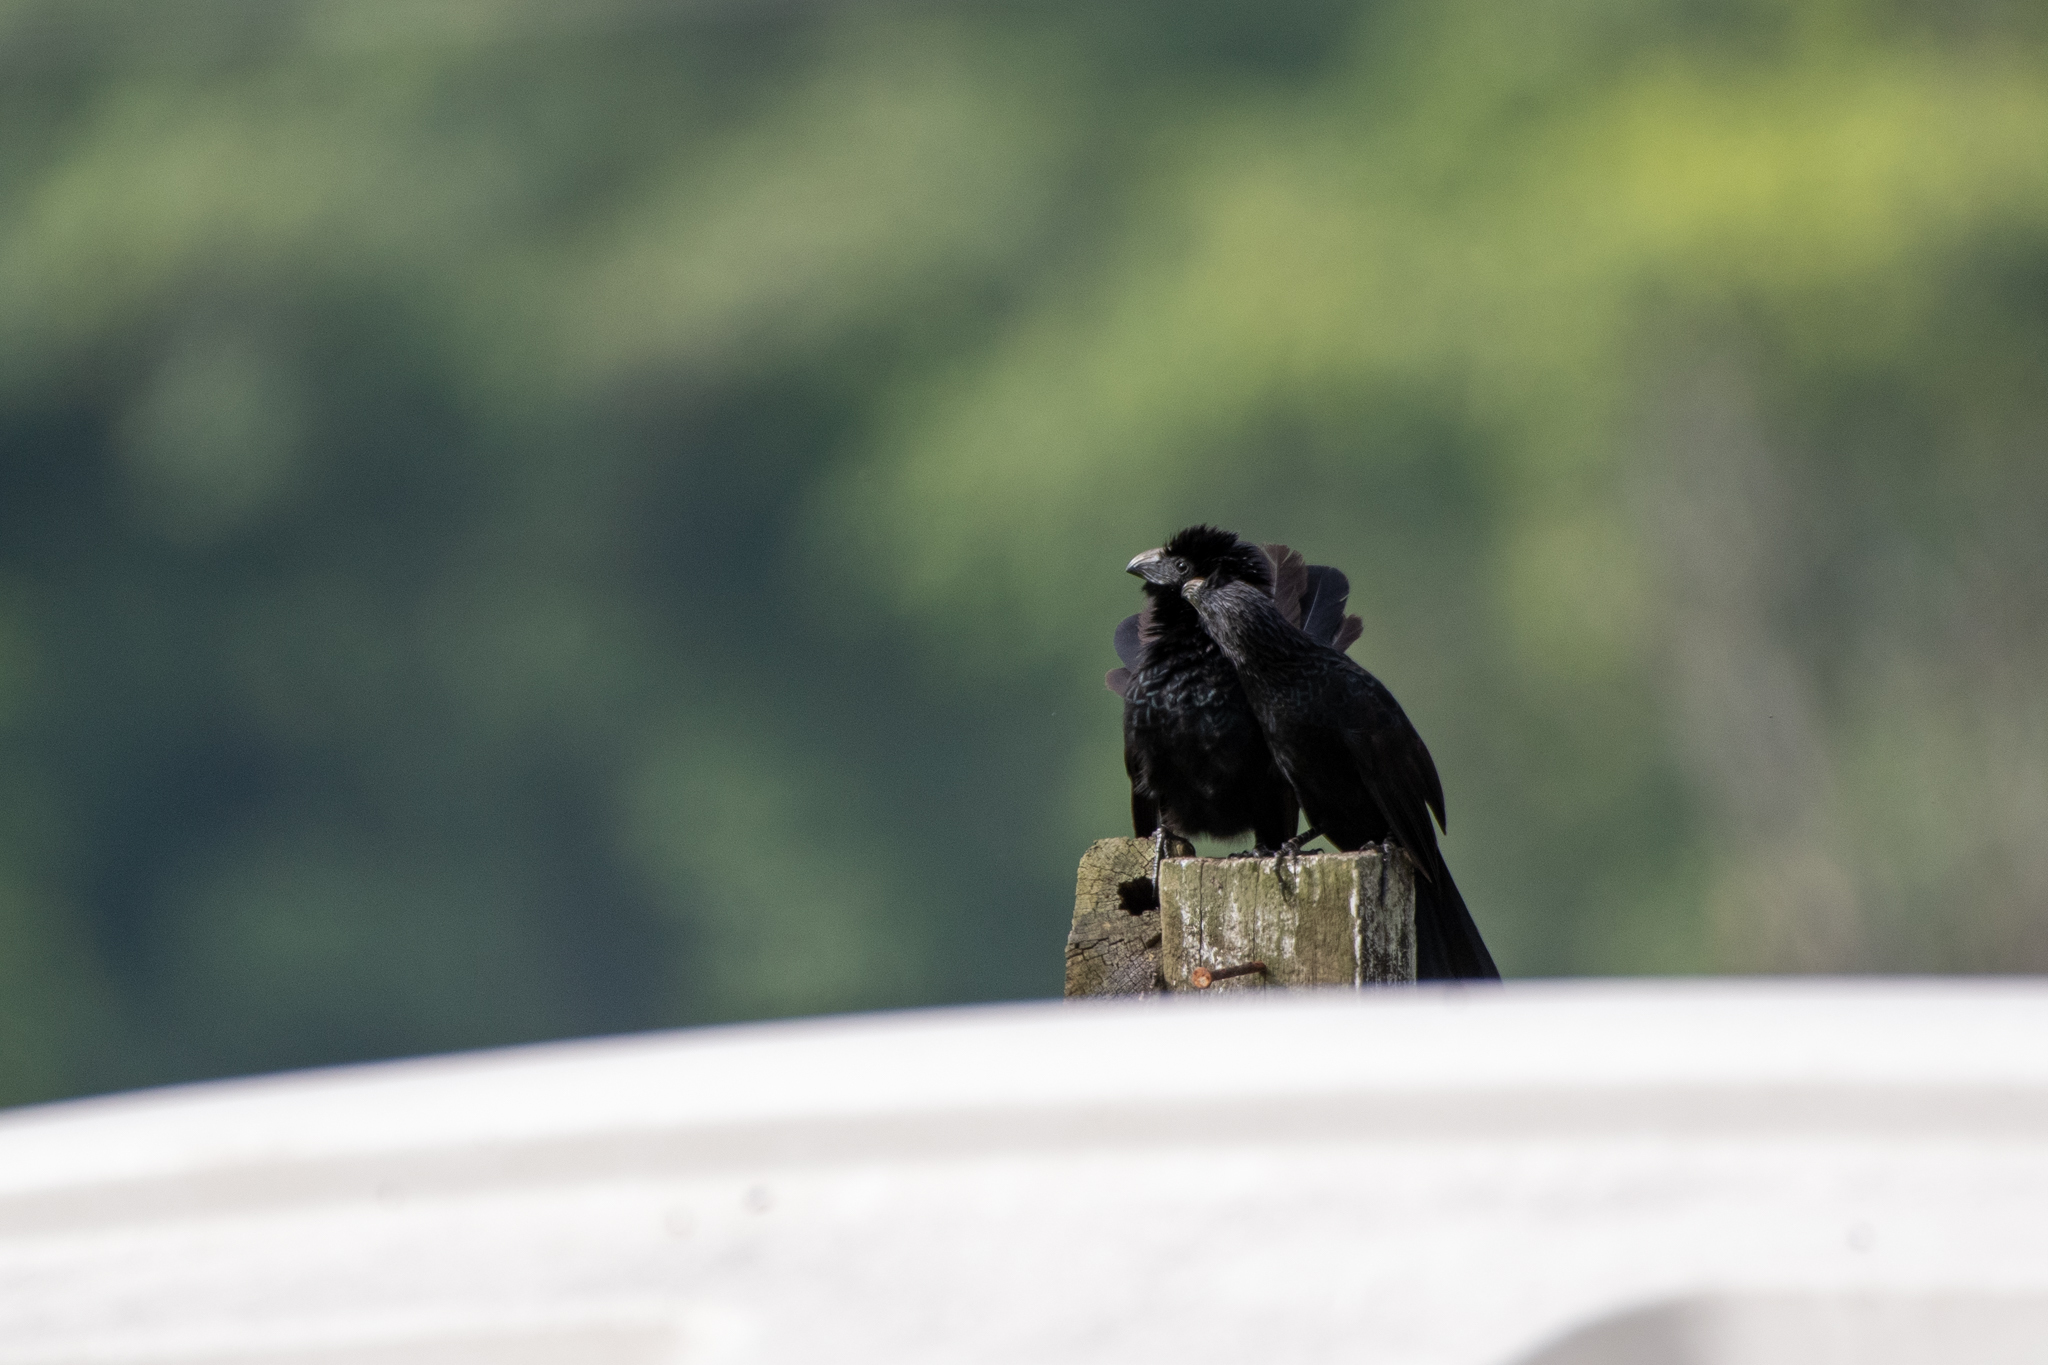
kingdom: Animalia
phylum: Chordata
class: Aves
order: Cuculiformes
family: Cuculidae
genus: Crotophaga
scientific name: Crotophaga sulcirostris
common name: Groove-billed ani
